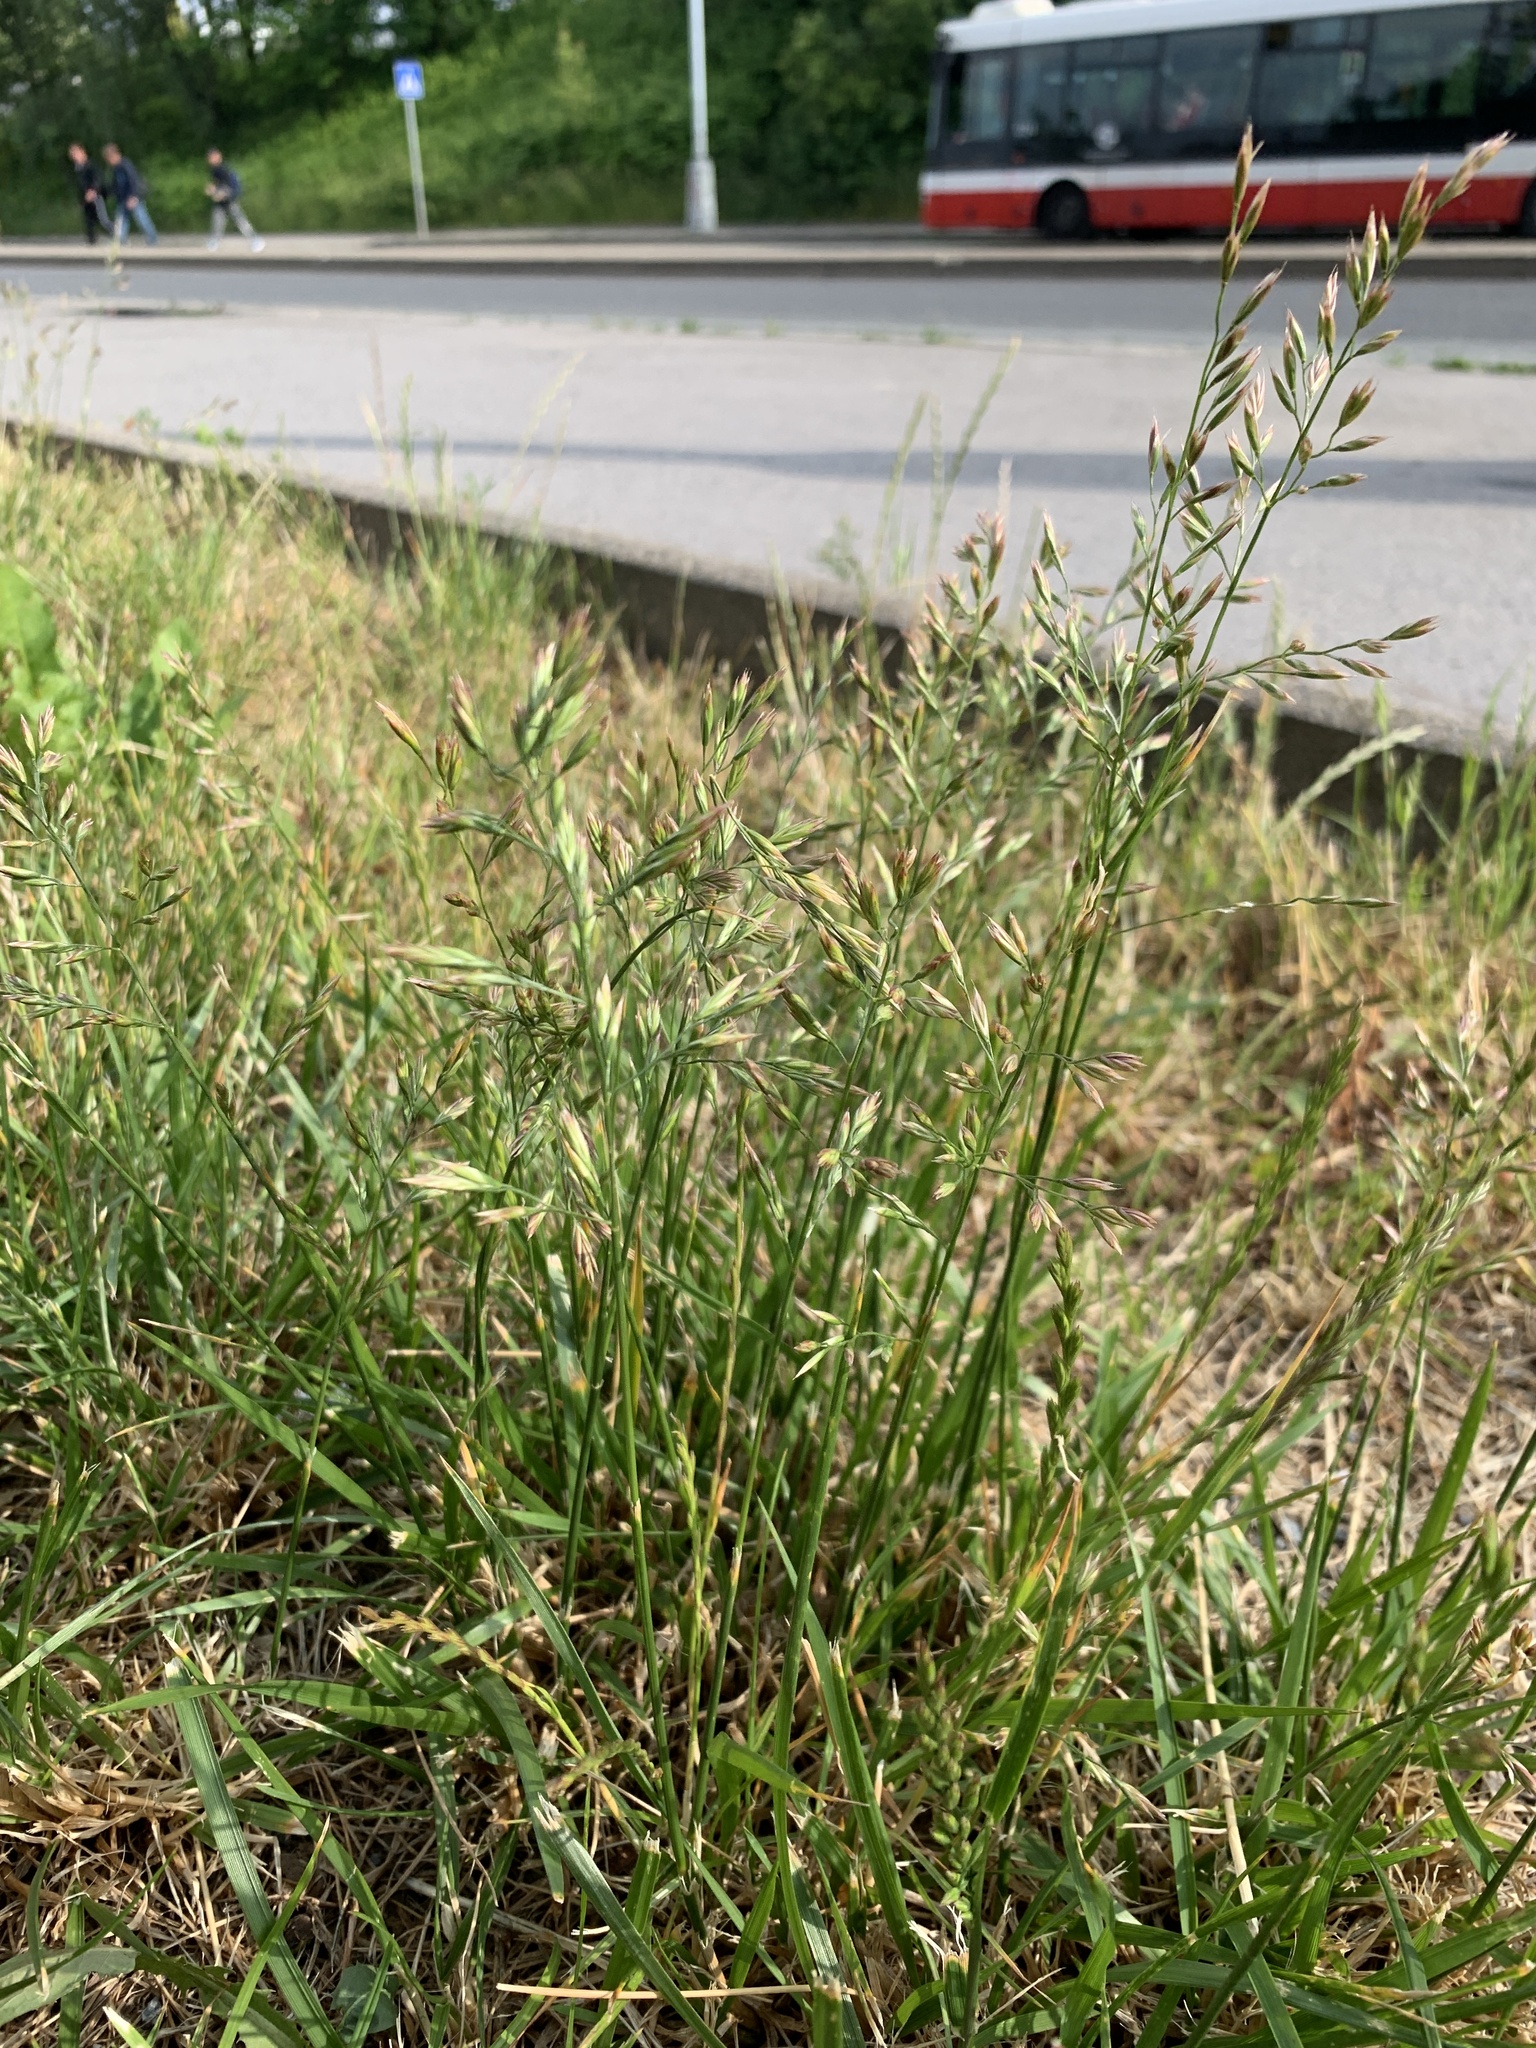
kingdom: Plantae
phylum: Tracheophyta
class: Liliopsida
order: Poales
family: Poaceae
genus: Lolium
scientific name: Lolium arundinaceum
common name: Reed fescue
